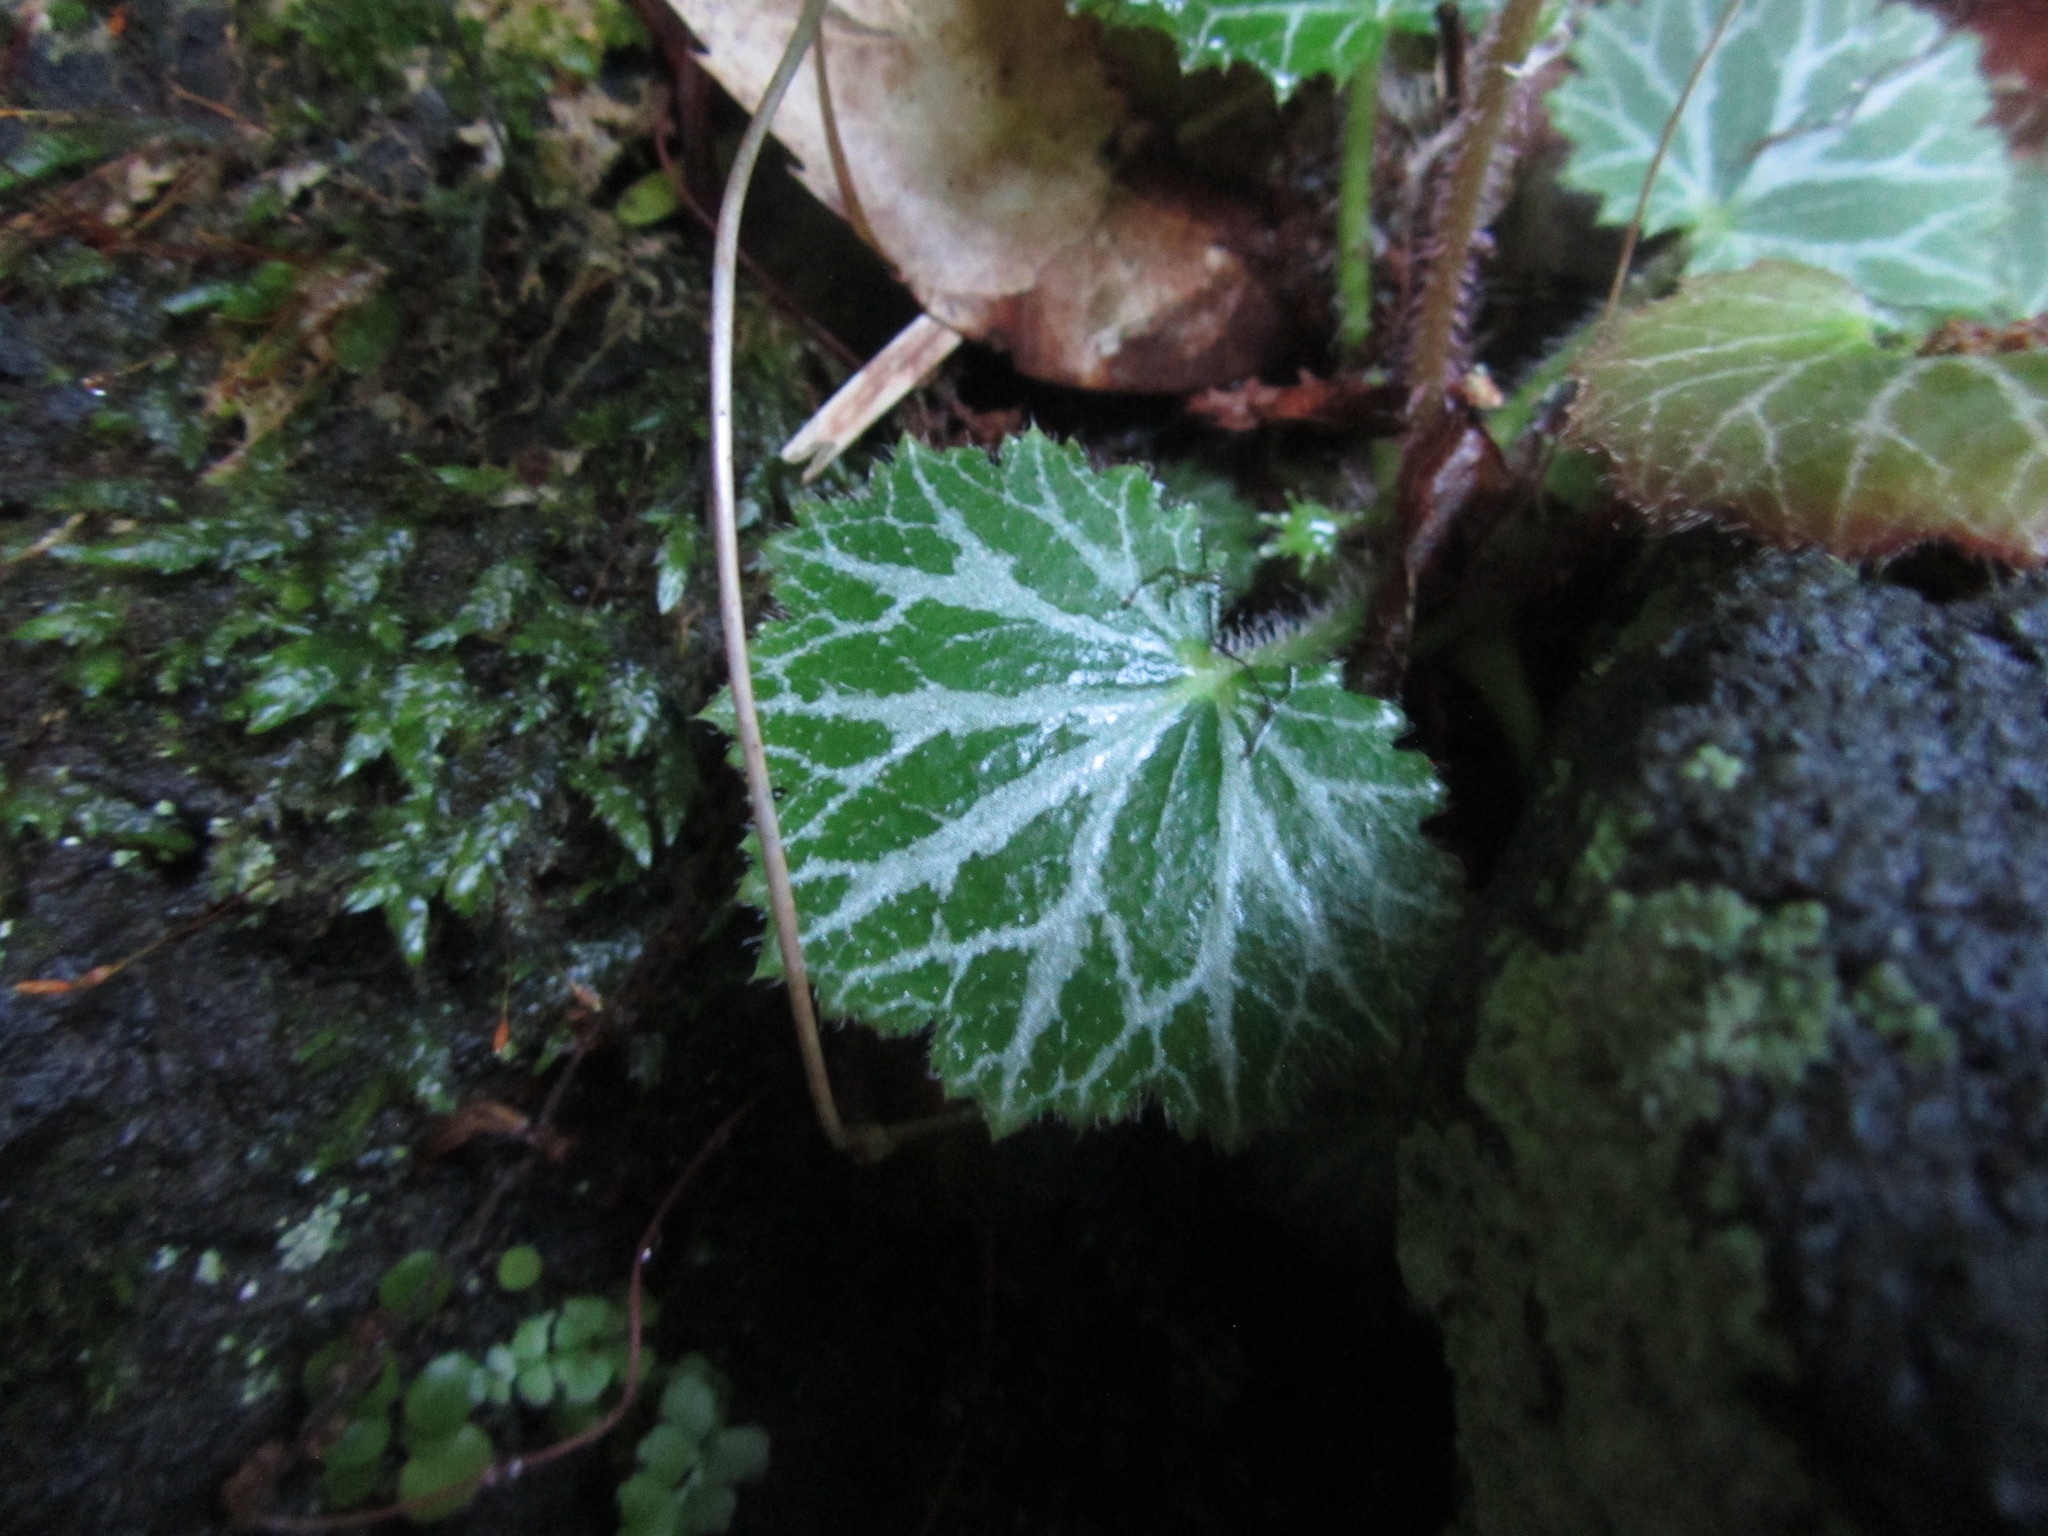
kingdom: Plantae
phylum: Tracheophyta
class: Magnoliopsida
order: Saxifragales
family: Saxifragaceae
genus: Saxifraga
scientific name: Saxifraga stolonifera
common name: Creeping saxifrage
